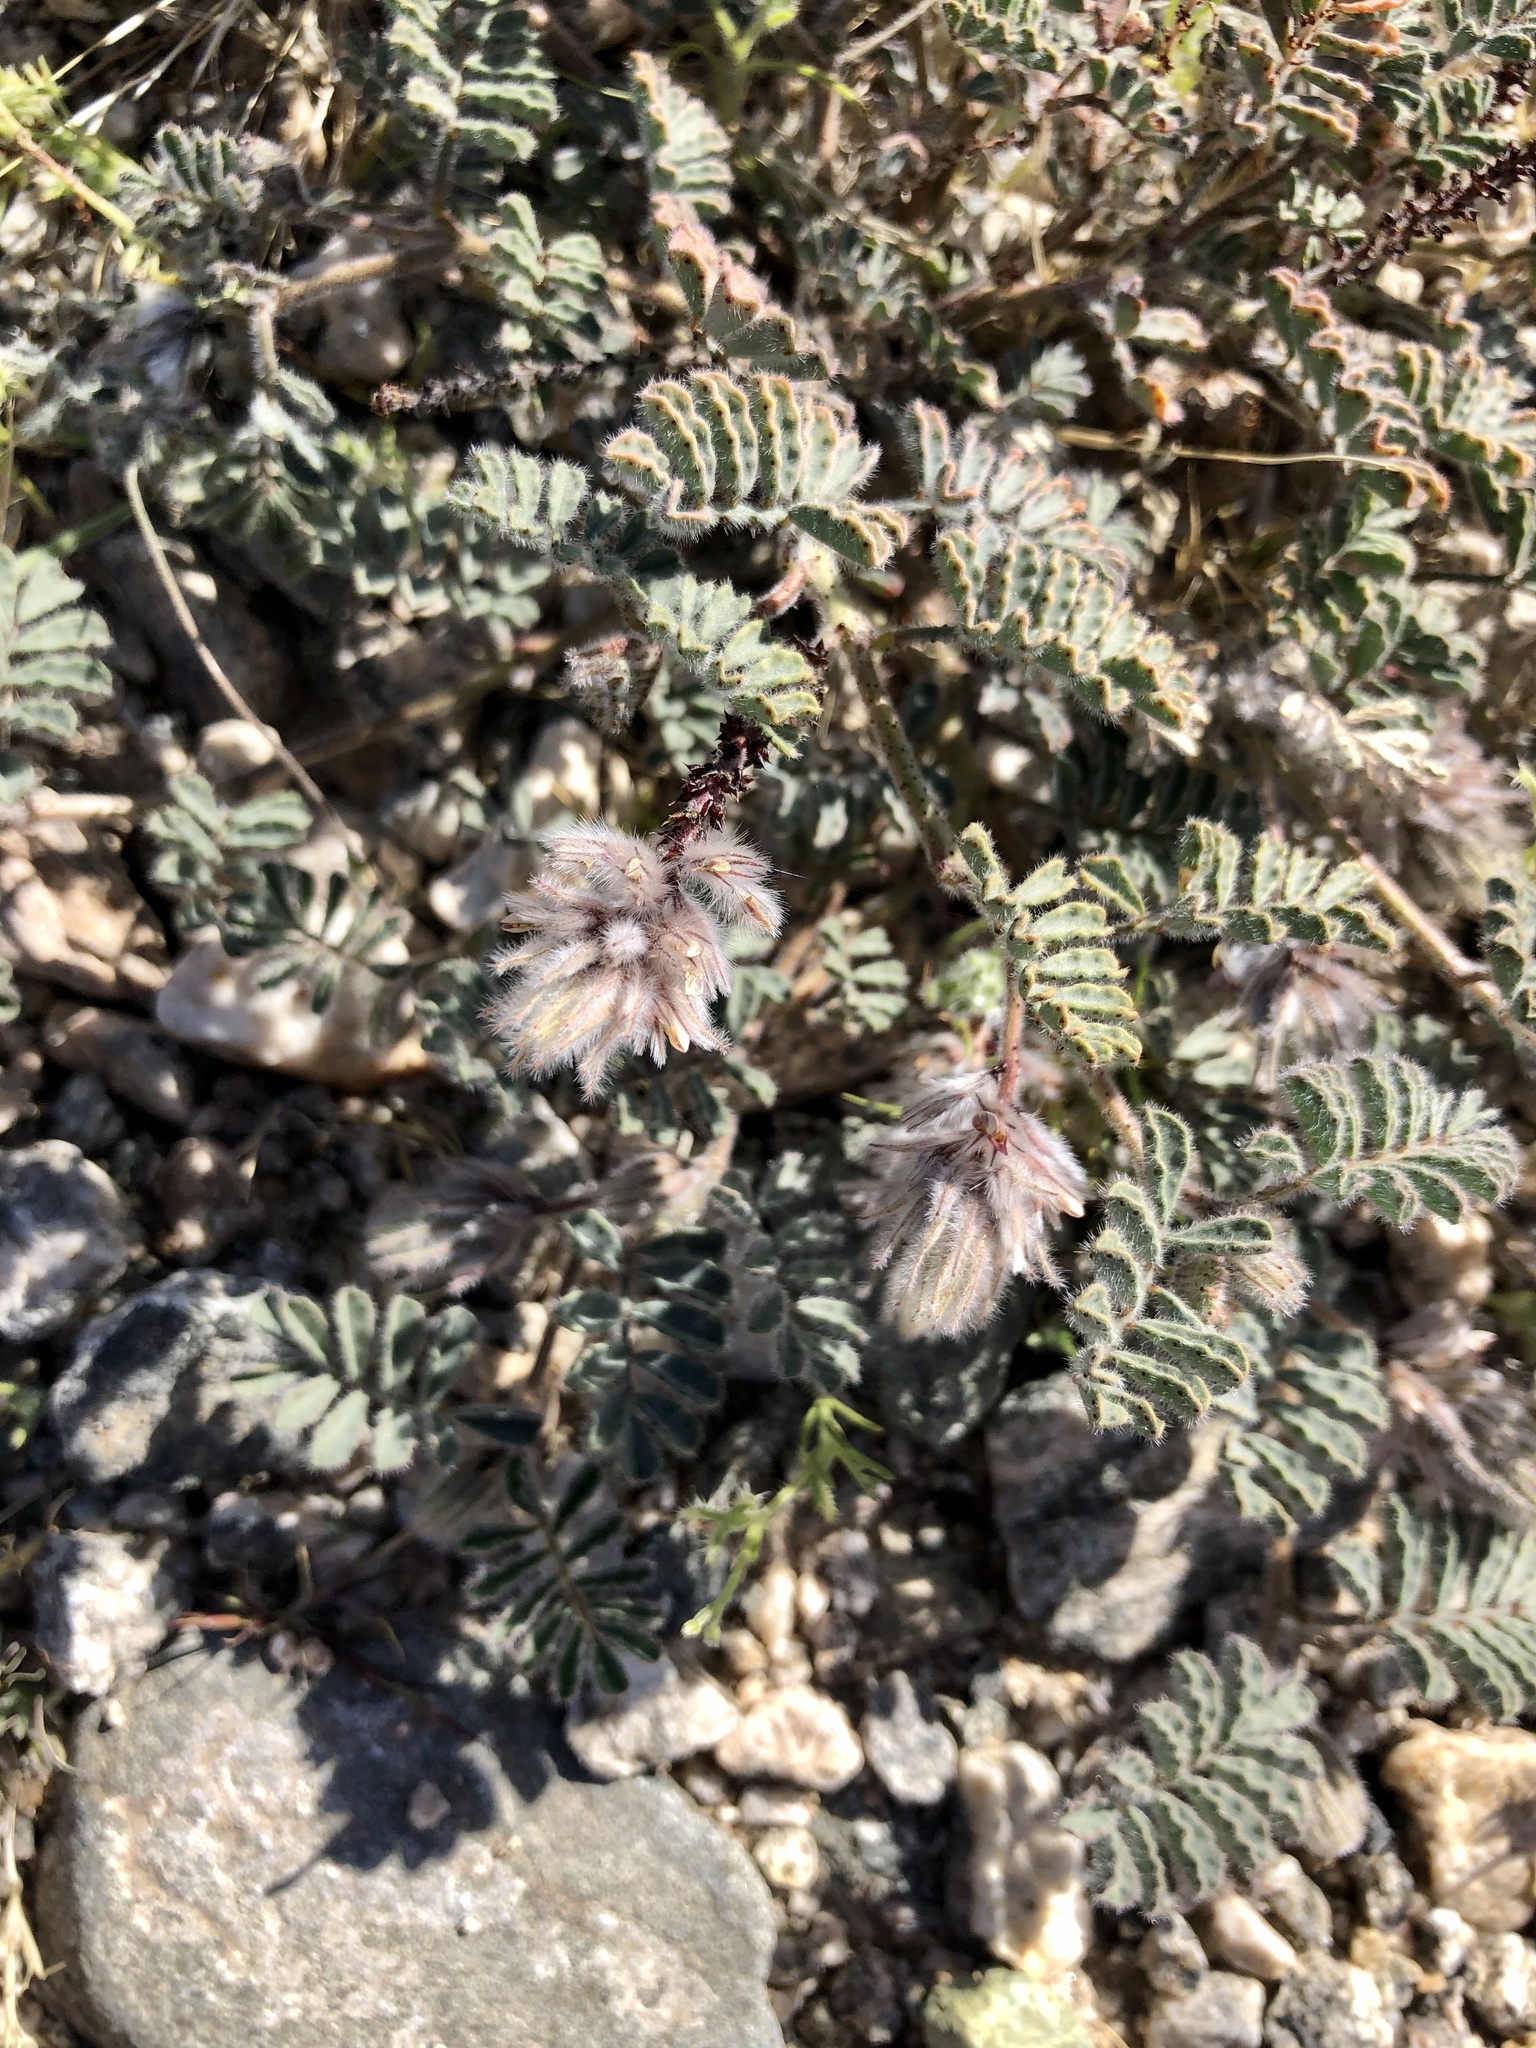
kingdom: Plantae
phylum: Tracheophyta
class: Magnoliopsida
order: Fabales
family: Fabaceae
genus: Dalea
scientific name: Dalea mollissima
